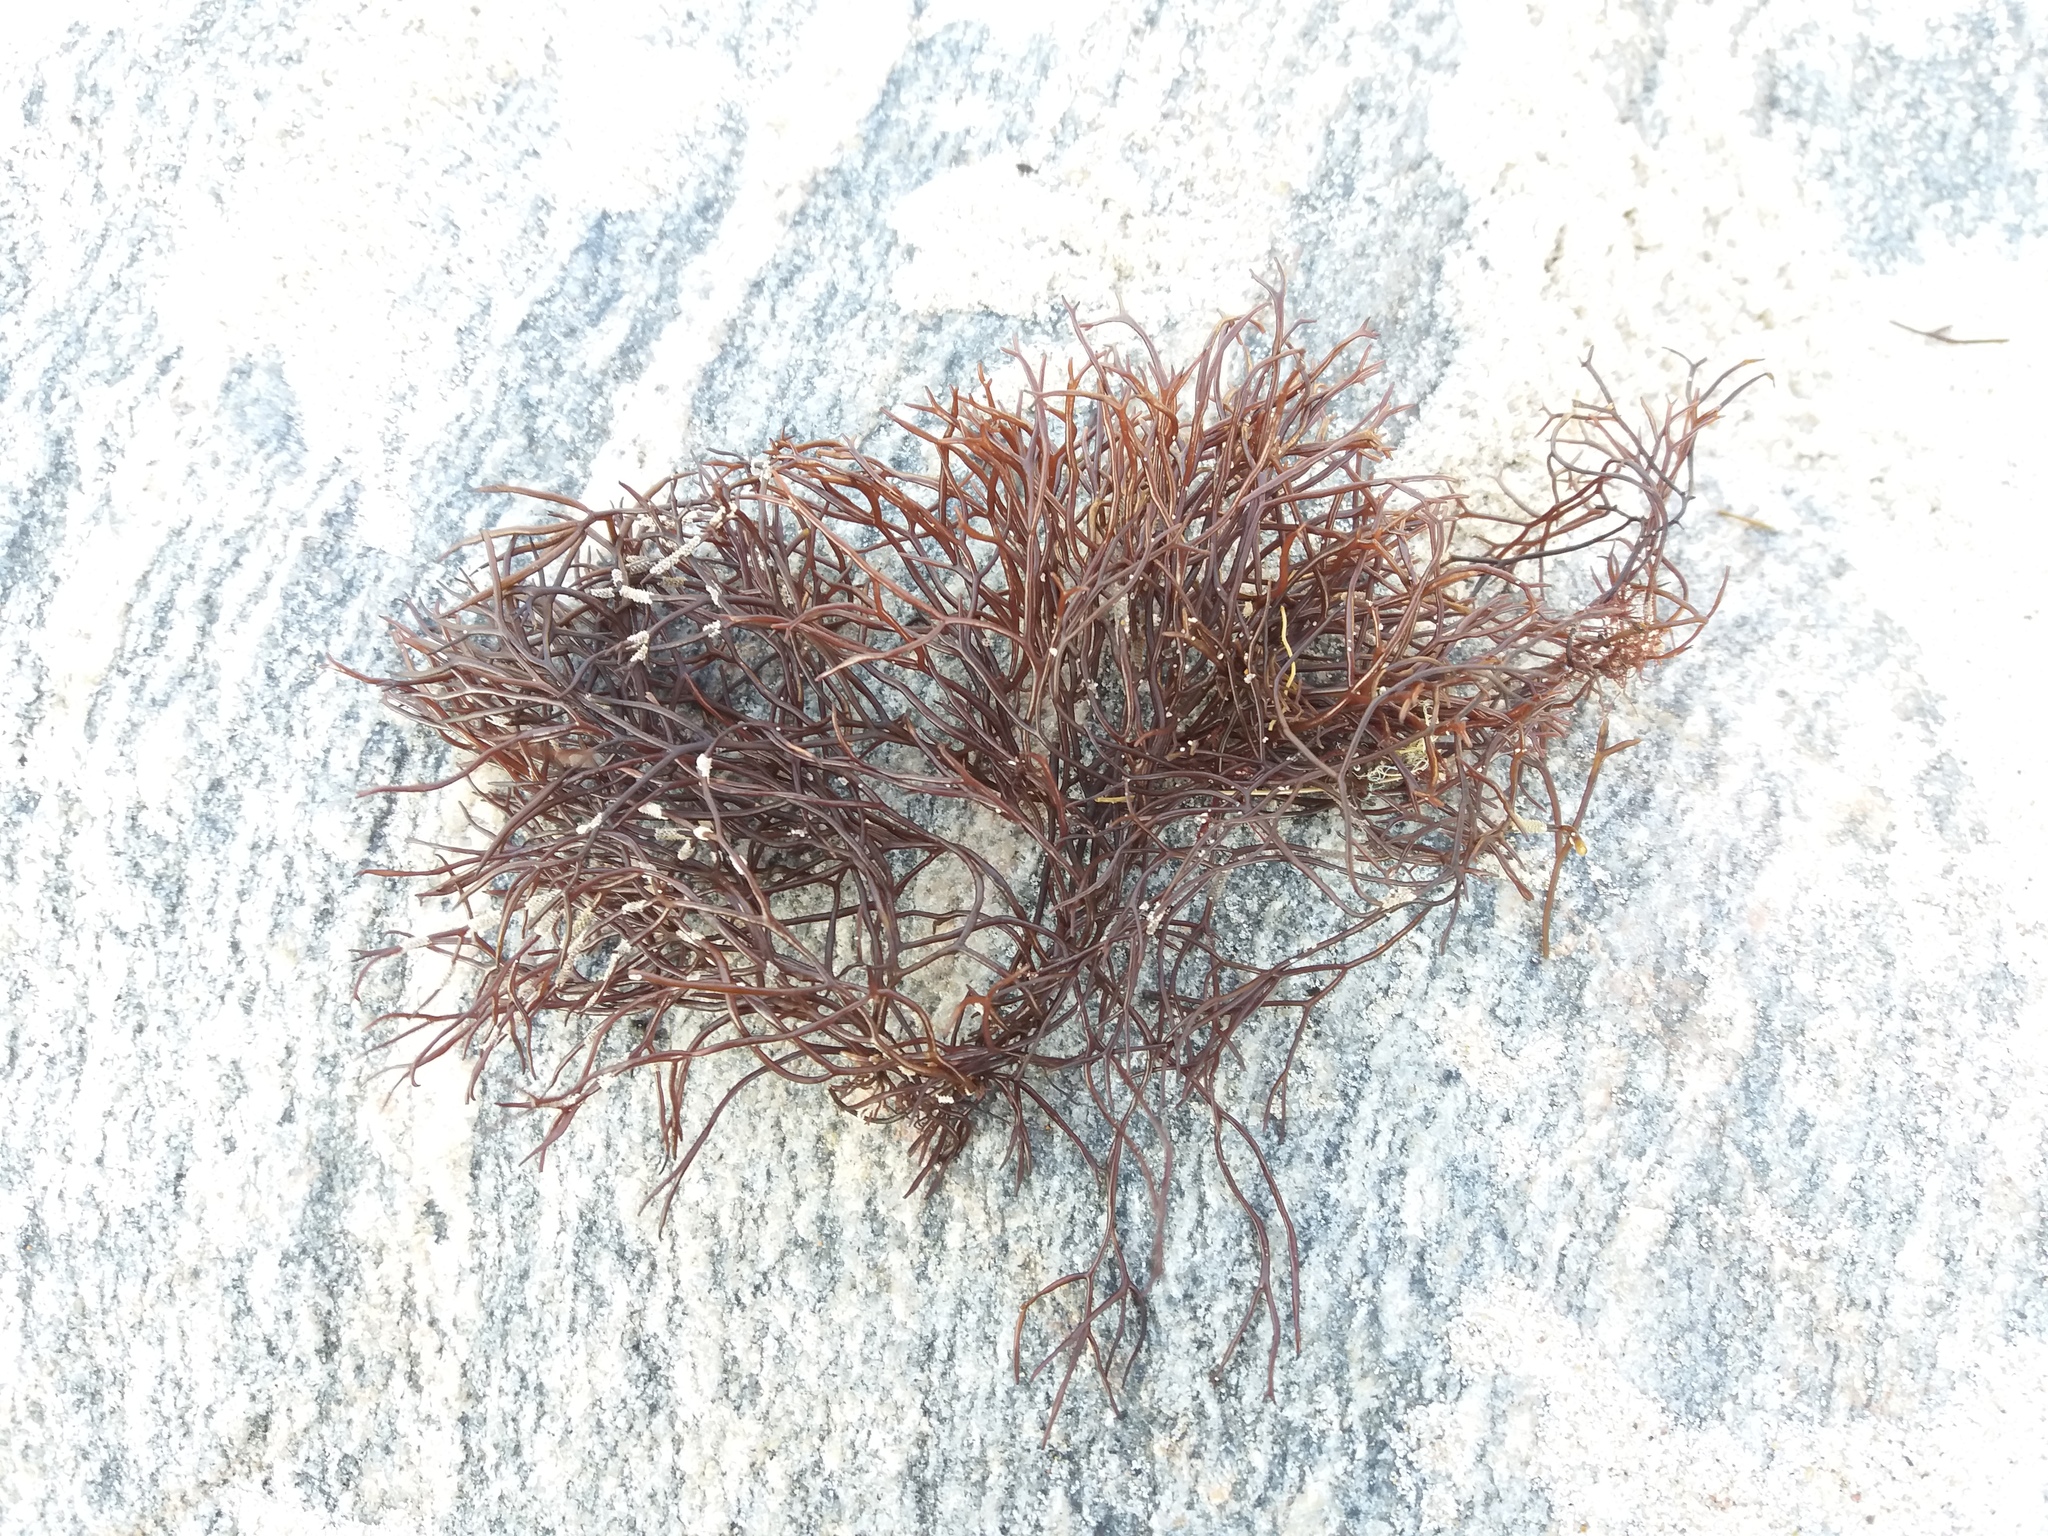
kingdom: Plantae
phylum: Rhodophyta
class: Florideophyceae
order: Gigartinales
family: Furcellariaceae
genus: Furcellaria
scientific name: Furcellaria lumbricalis
